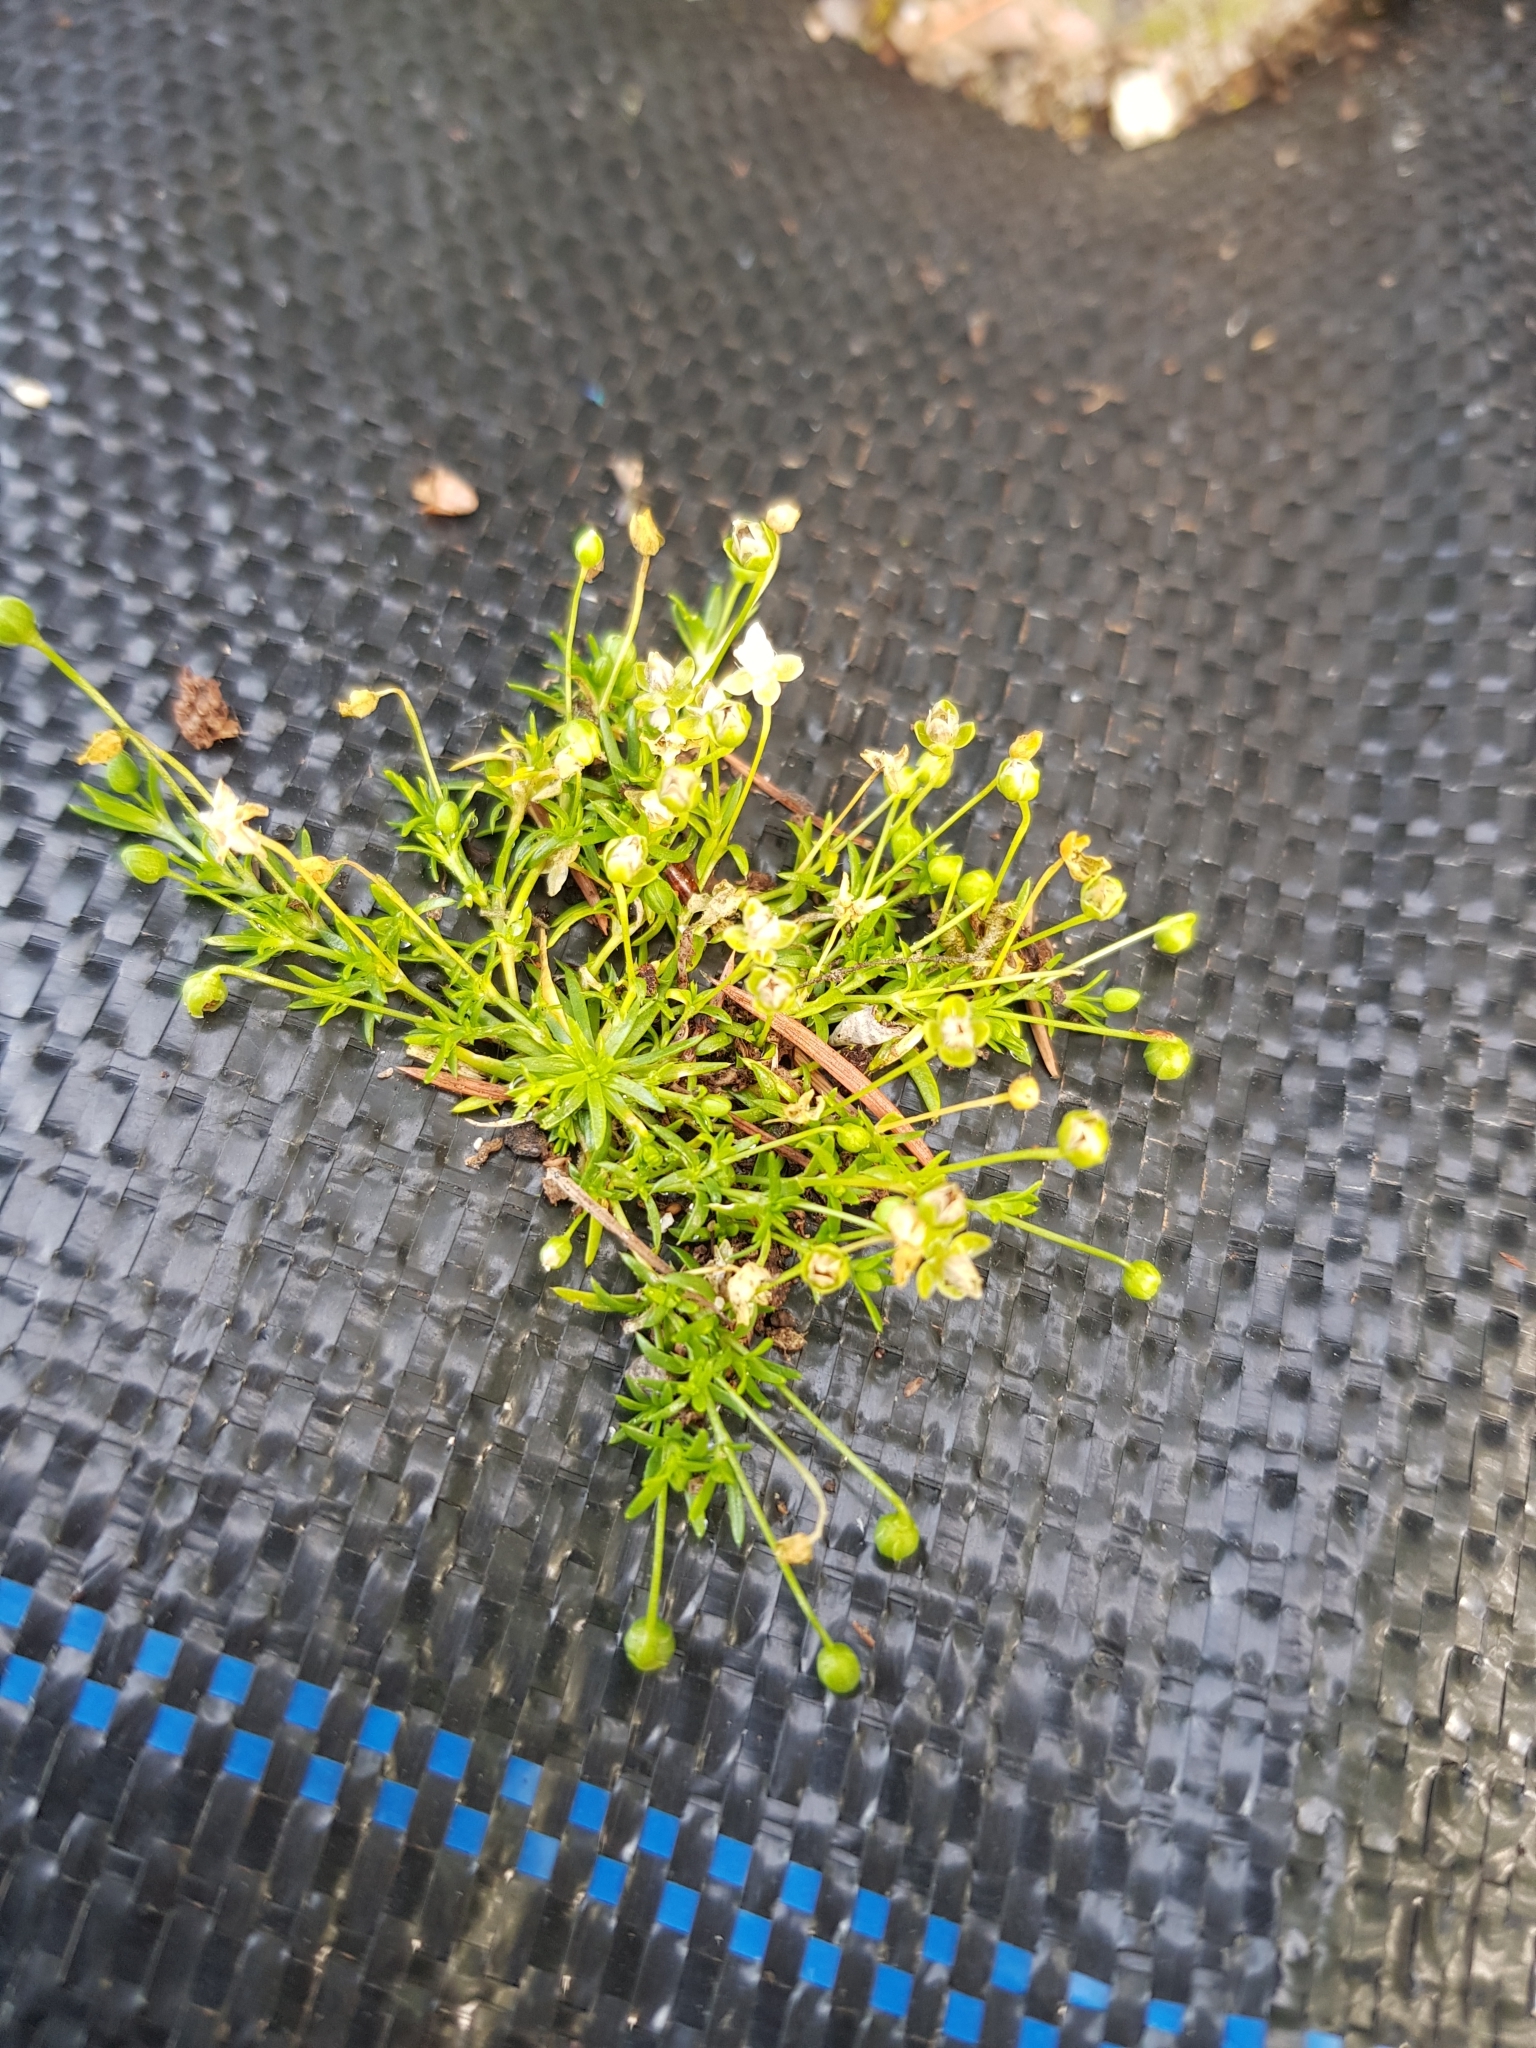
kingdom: Plantae
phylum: Tracheophyta
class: Magnoliopsida
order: Caryophyllales
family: Caryophyllaceae
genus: Sagina
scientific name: Sagina procumbens
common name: Procumbent pearlwort
